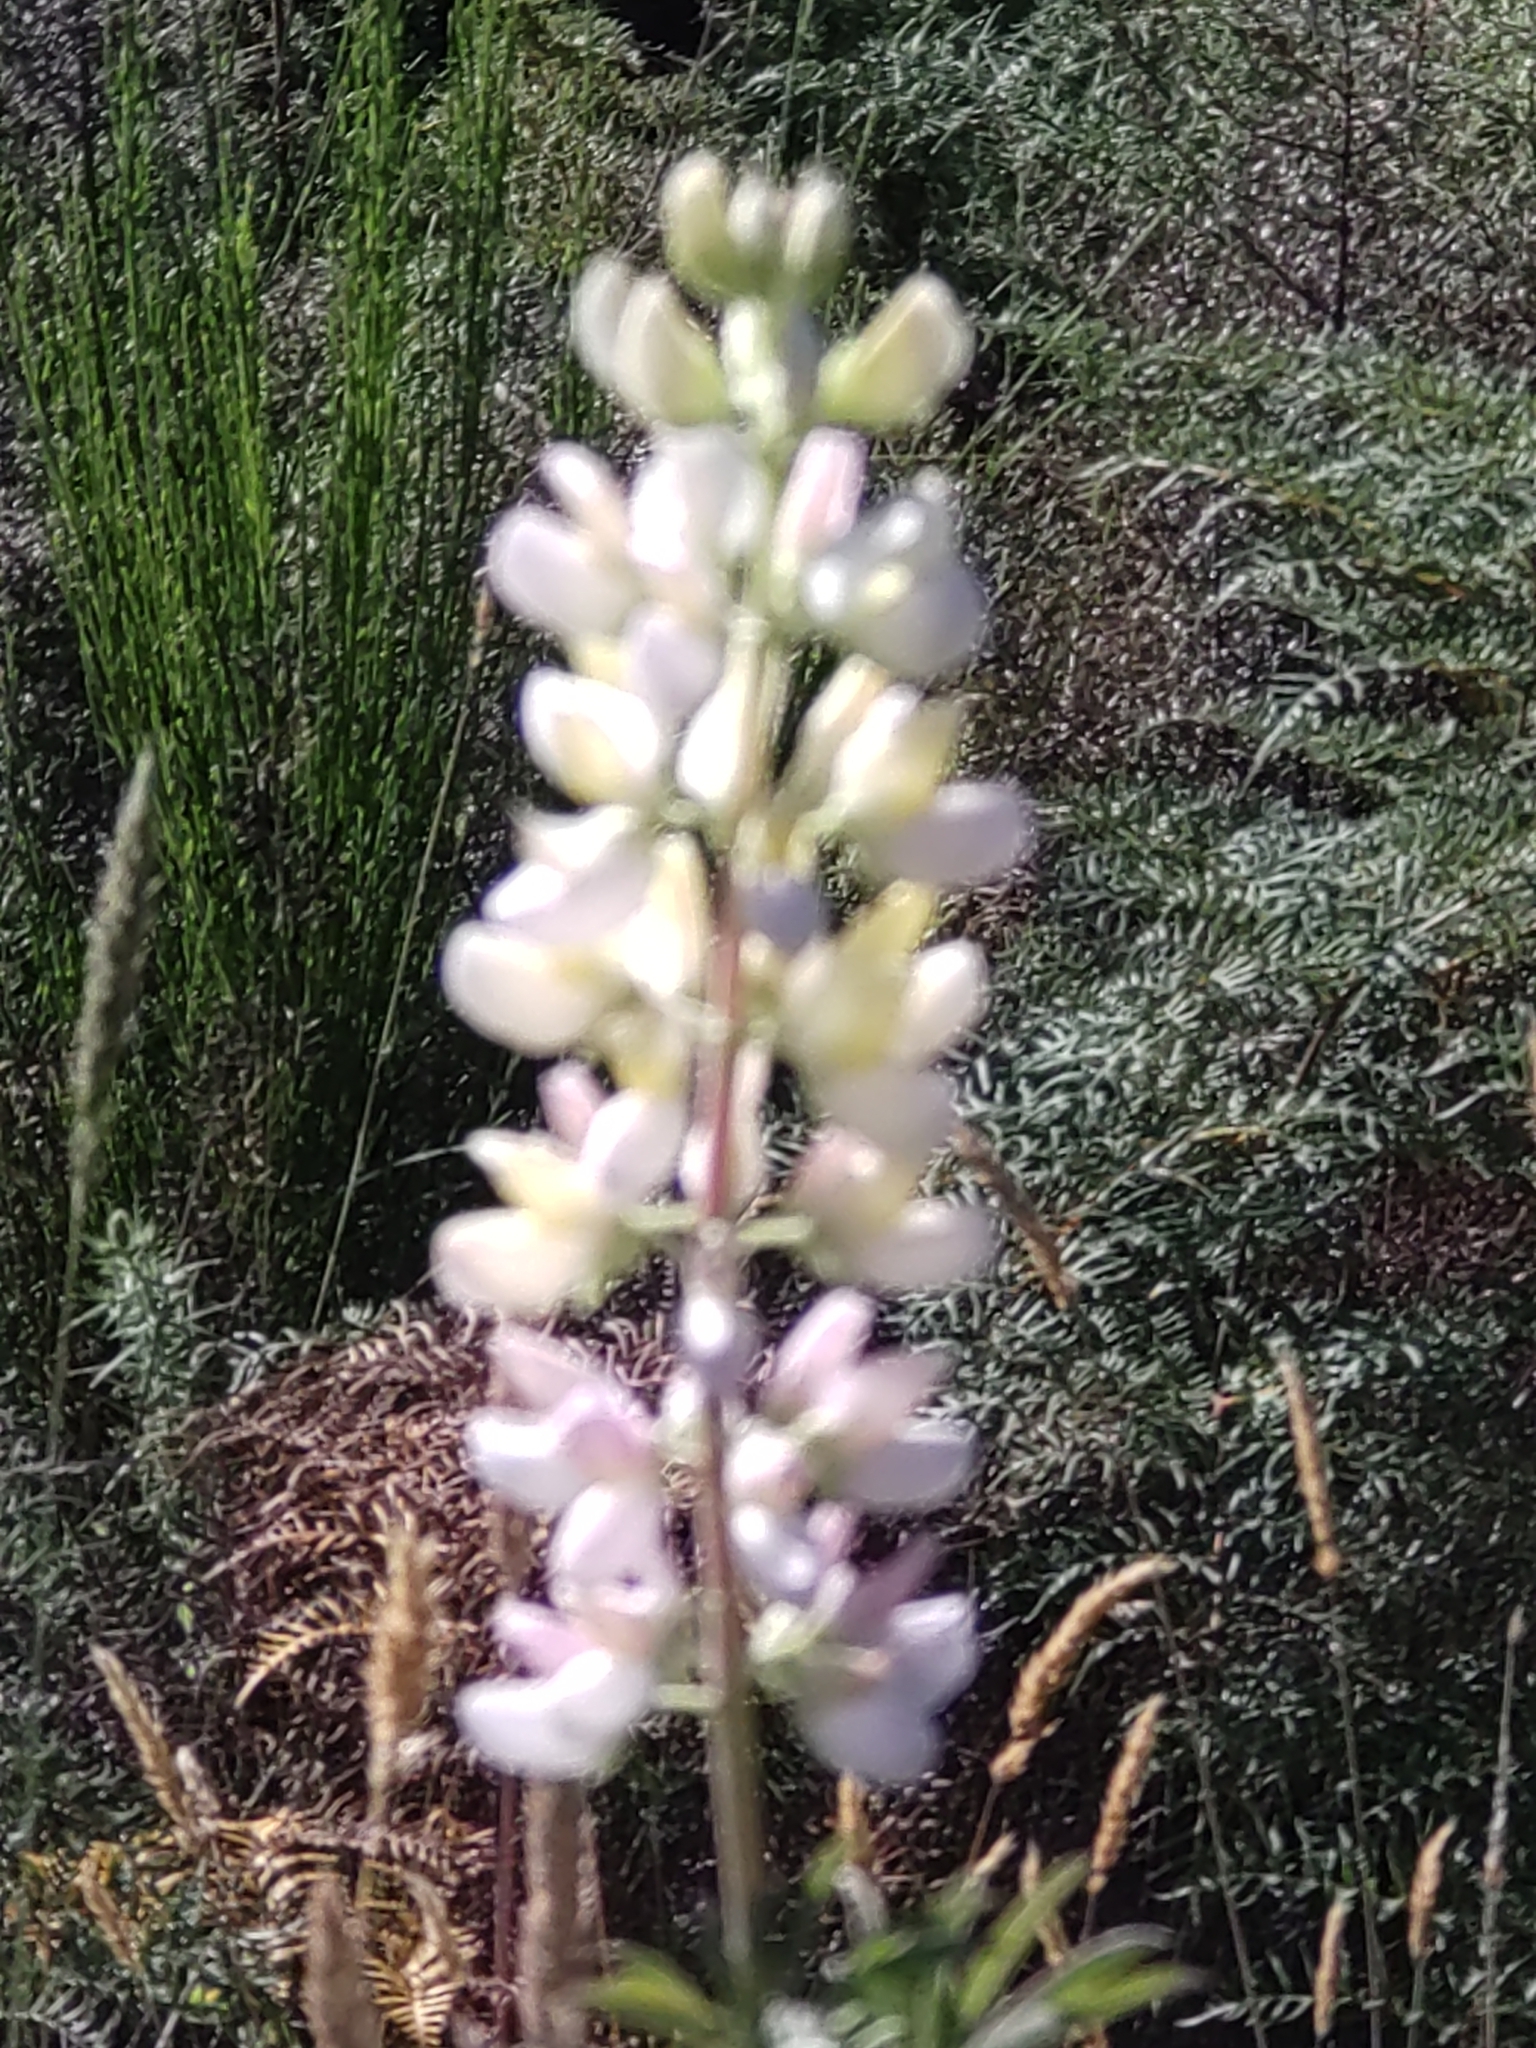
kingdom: Plantae
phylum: Tracheophyta
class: Magnoliopsida
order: Fabales
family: Fabaceae
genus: Lupinus
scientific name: Lupinus polyphyllus
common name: Garden lupin
